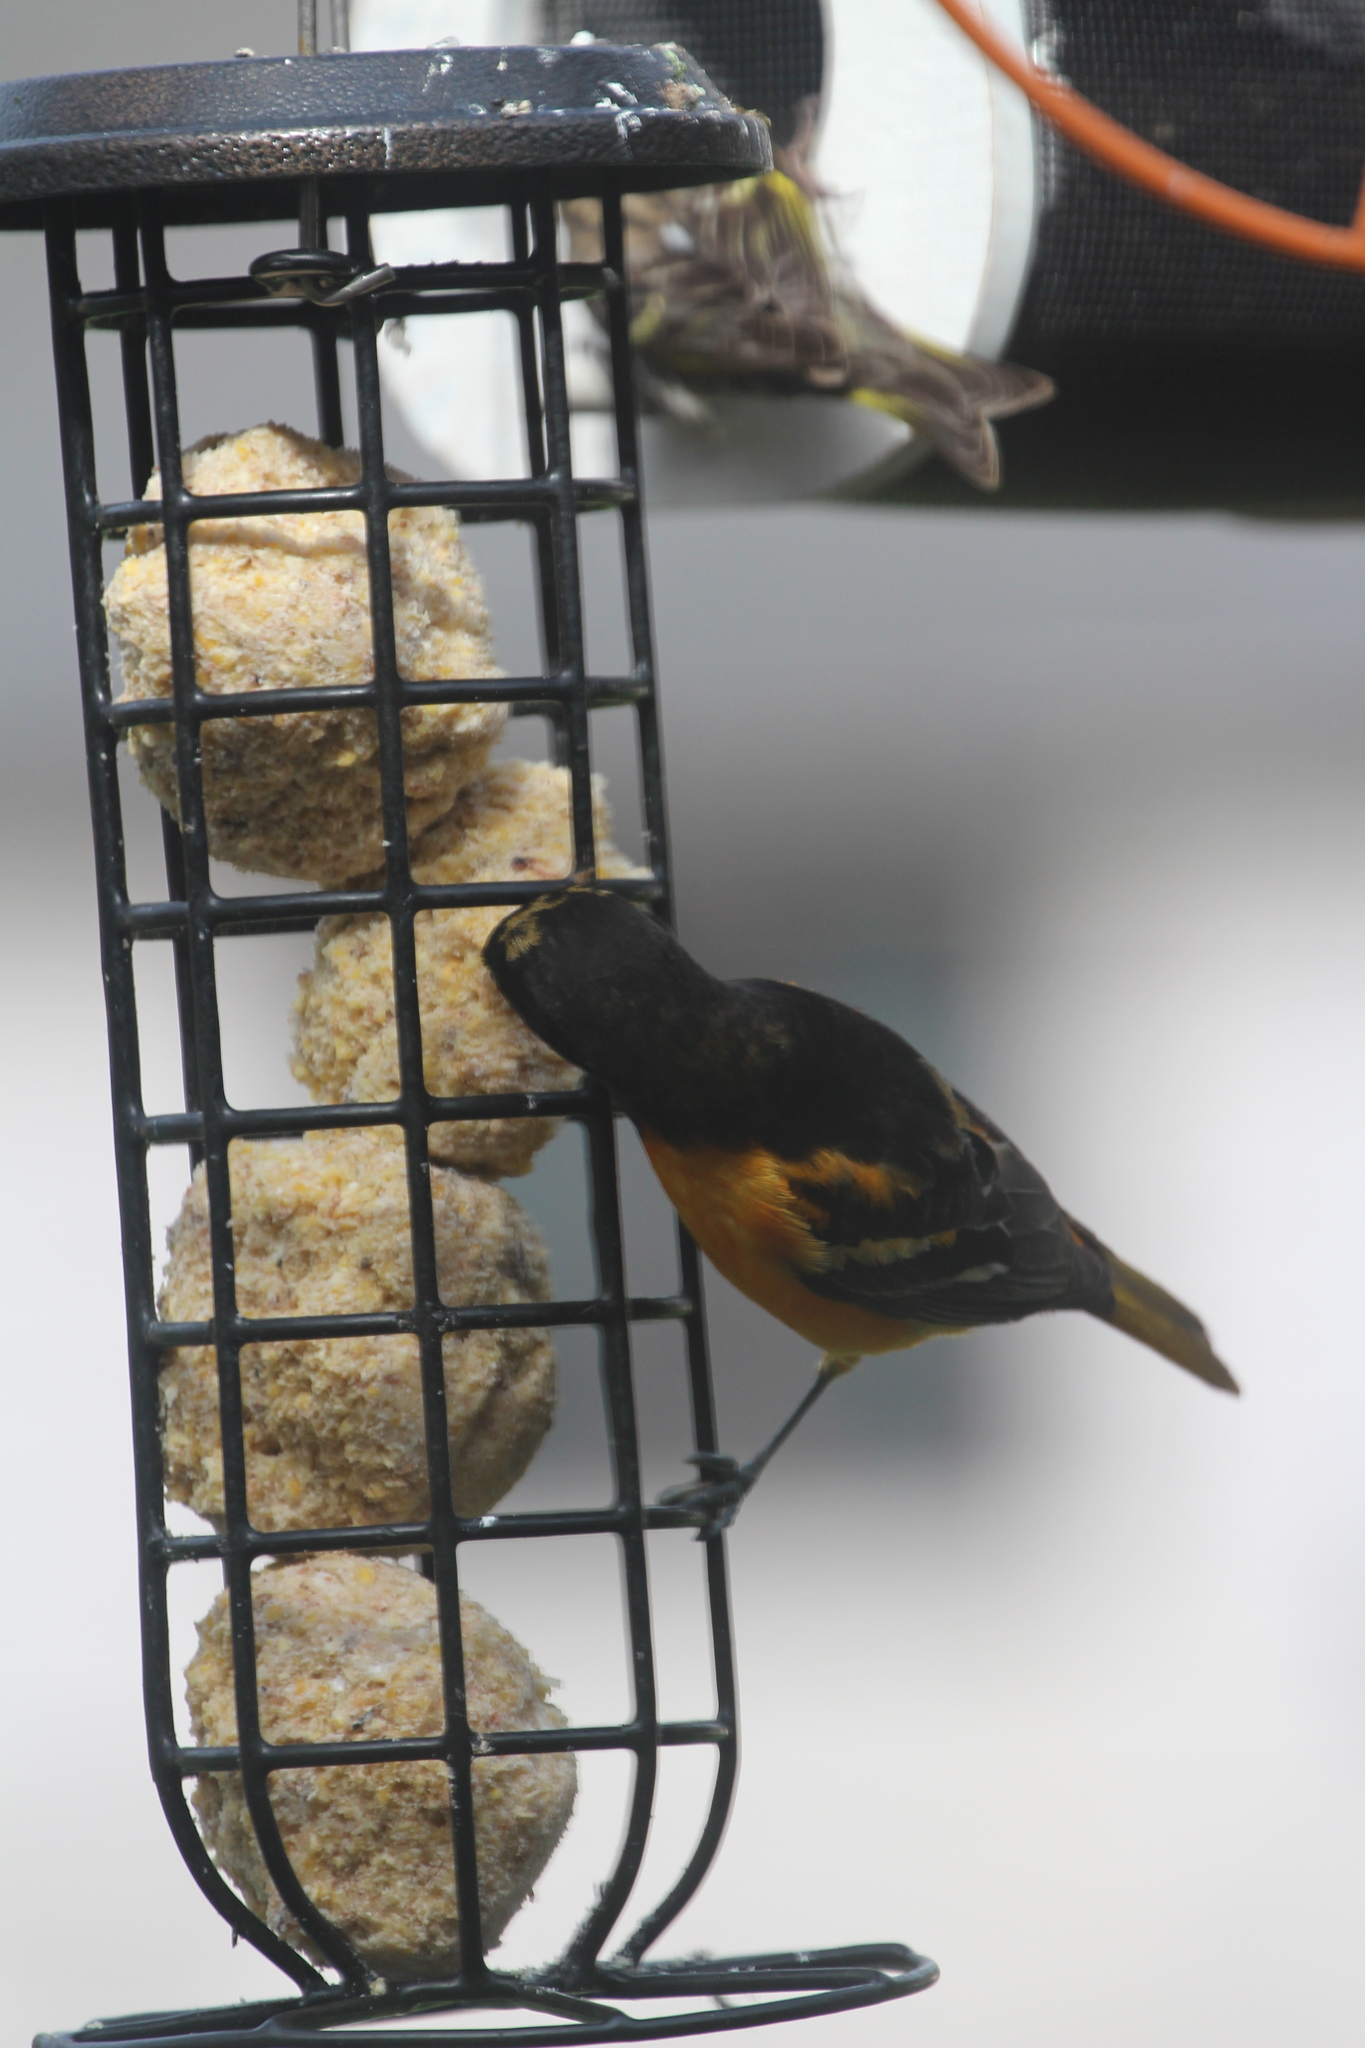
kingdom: Animalia
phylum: Chordata
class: Aves
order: Passeriformes
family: Icteridae
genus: Icterus
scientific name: Icterus galbula
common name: Baltimore oriole
